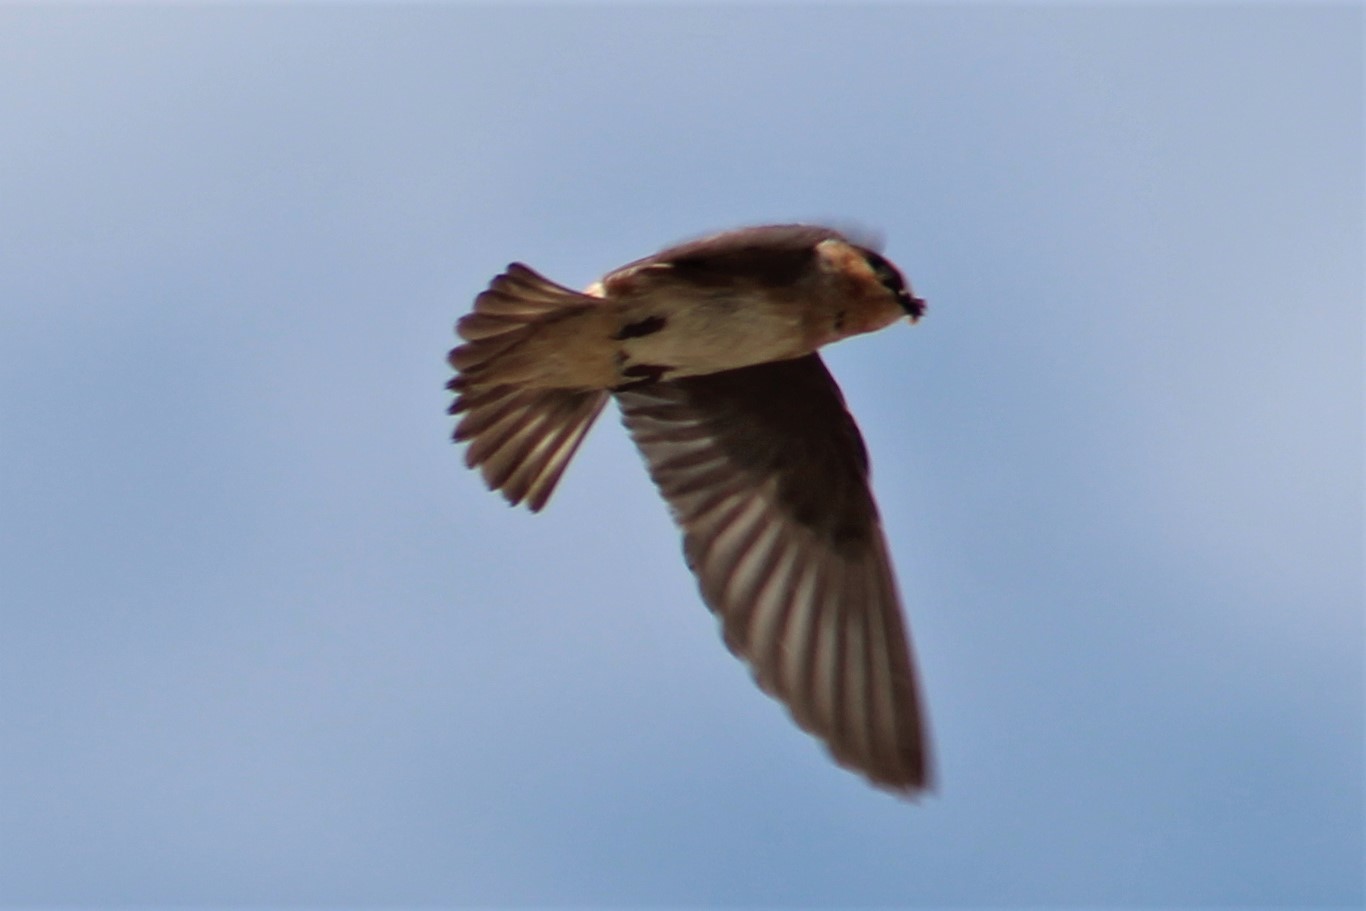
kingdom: Animalia
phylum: Chordata
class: Aves
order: Passeriformes
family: Hirundinidae
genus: Petrochelidon
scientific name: Petrochelidon fulva
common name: Cave swallow
